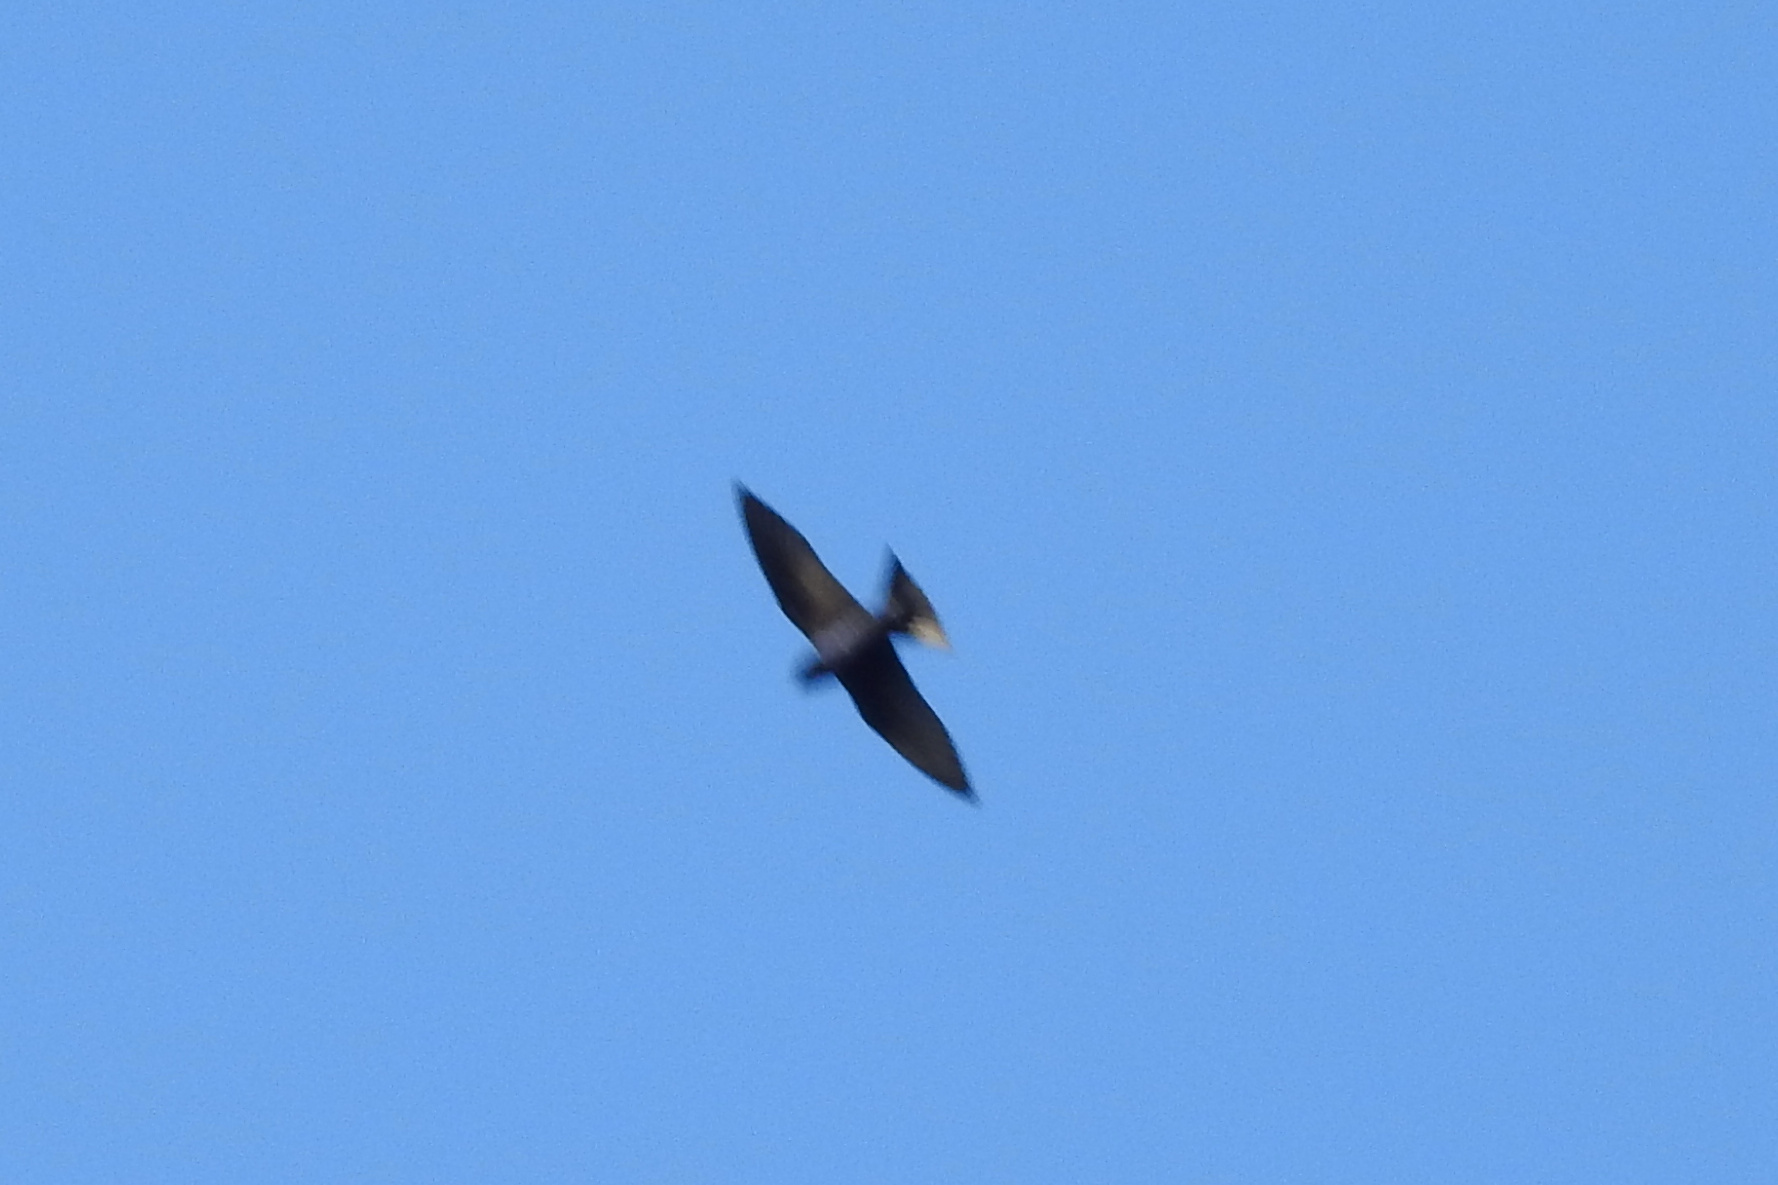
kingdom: Animalia
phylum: Chordata
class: Aves
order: Passeriformes
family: Hirundinidae
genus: Progne
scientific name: Progne subis
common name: Purple martin
